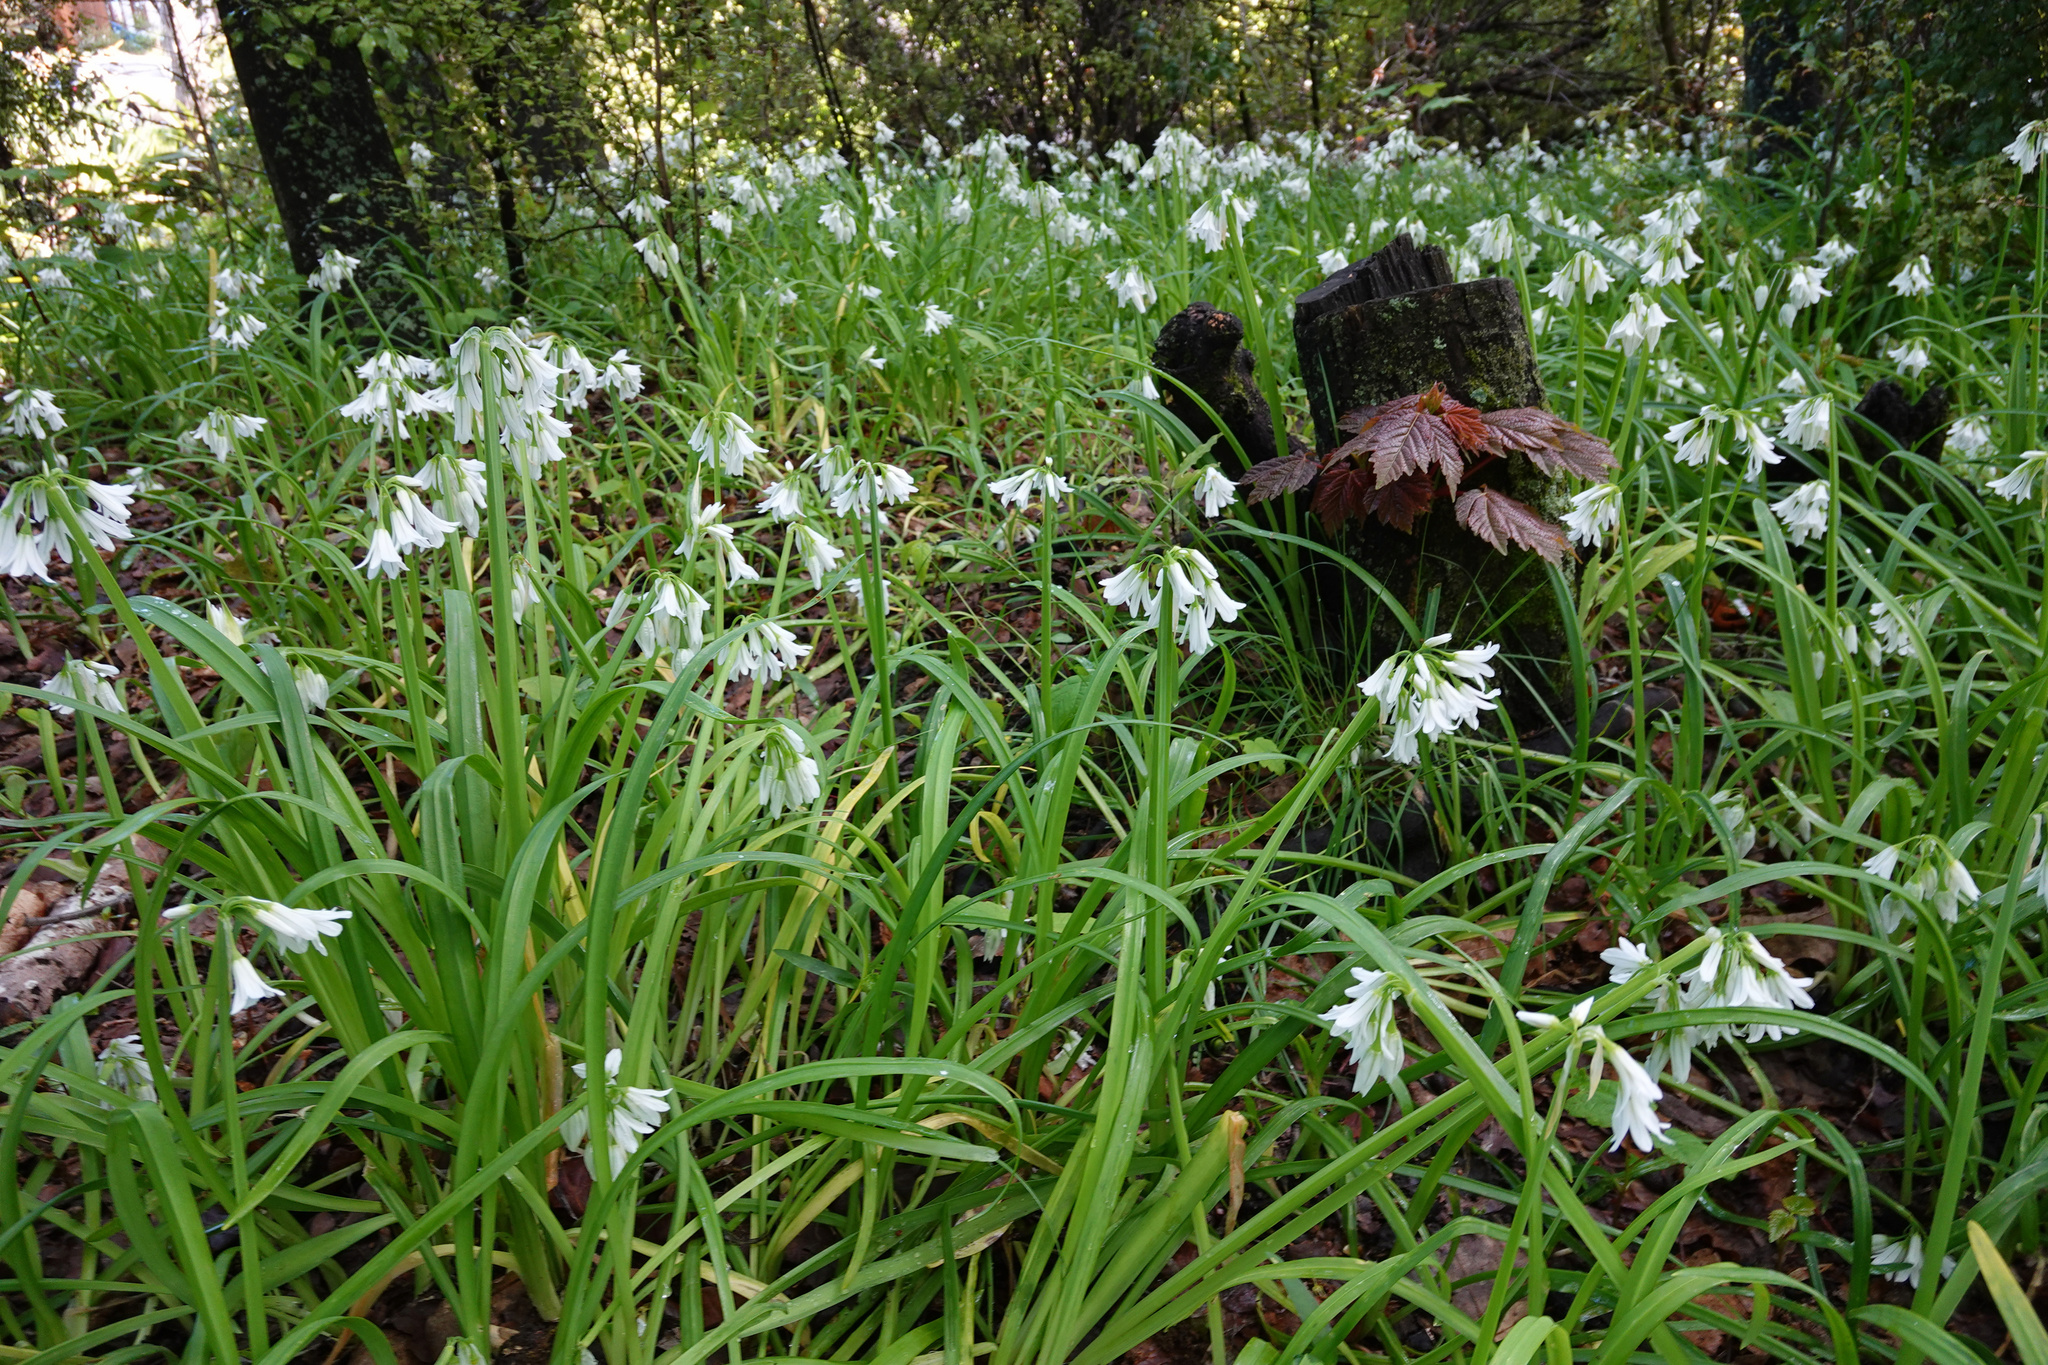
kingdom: Plantae
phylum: Tracheophyta
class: Liliopsida
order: Asparagales
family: Amaryllidaceae
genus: Allium
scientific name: Allium triquetrum
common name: Three-cornered garlic
